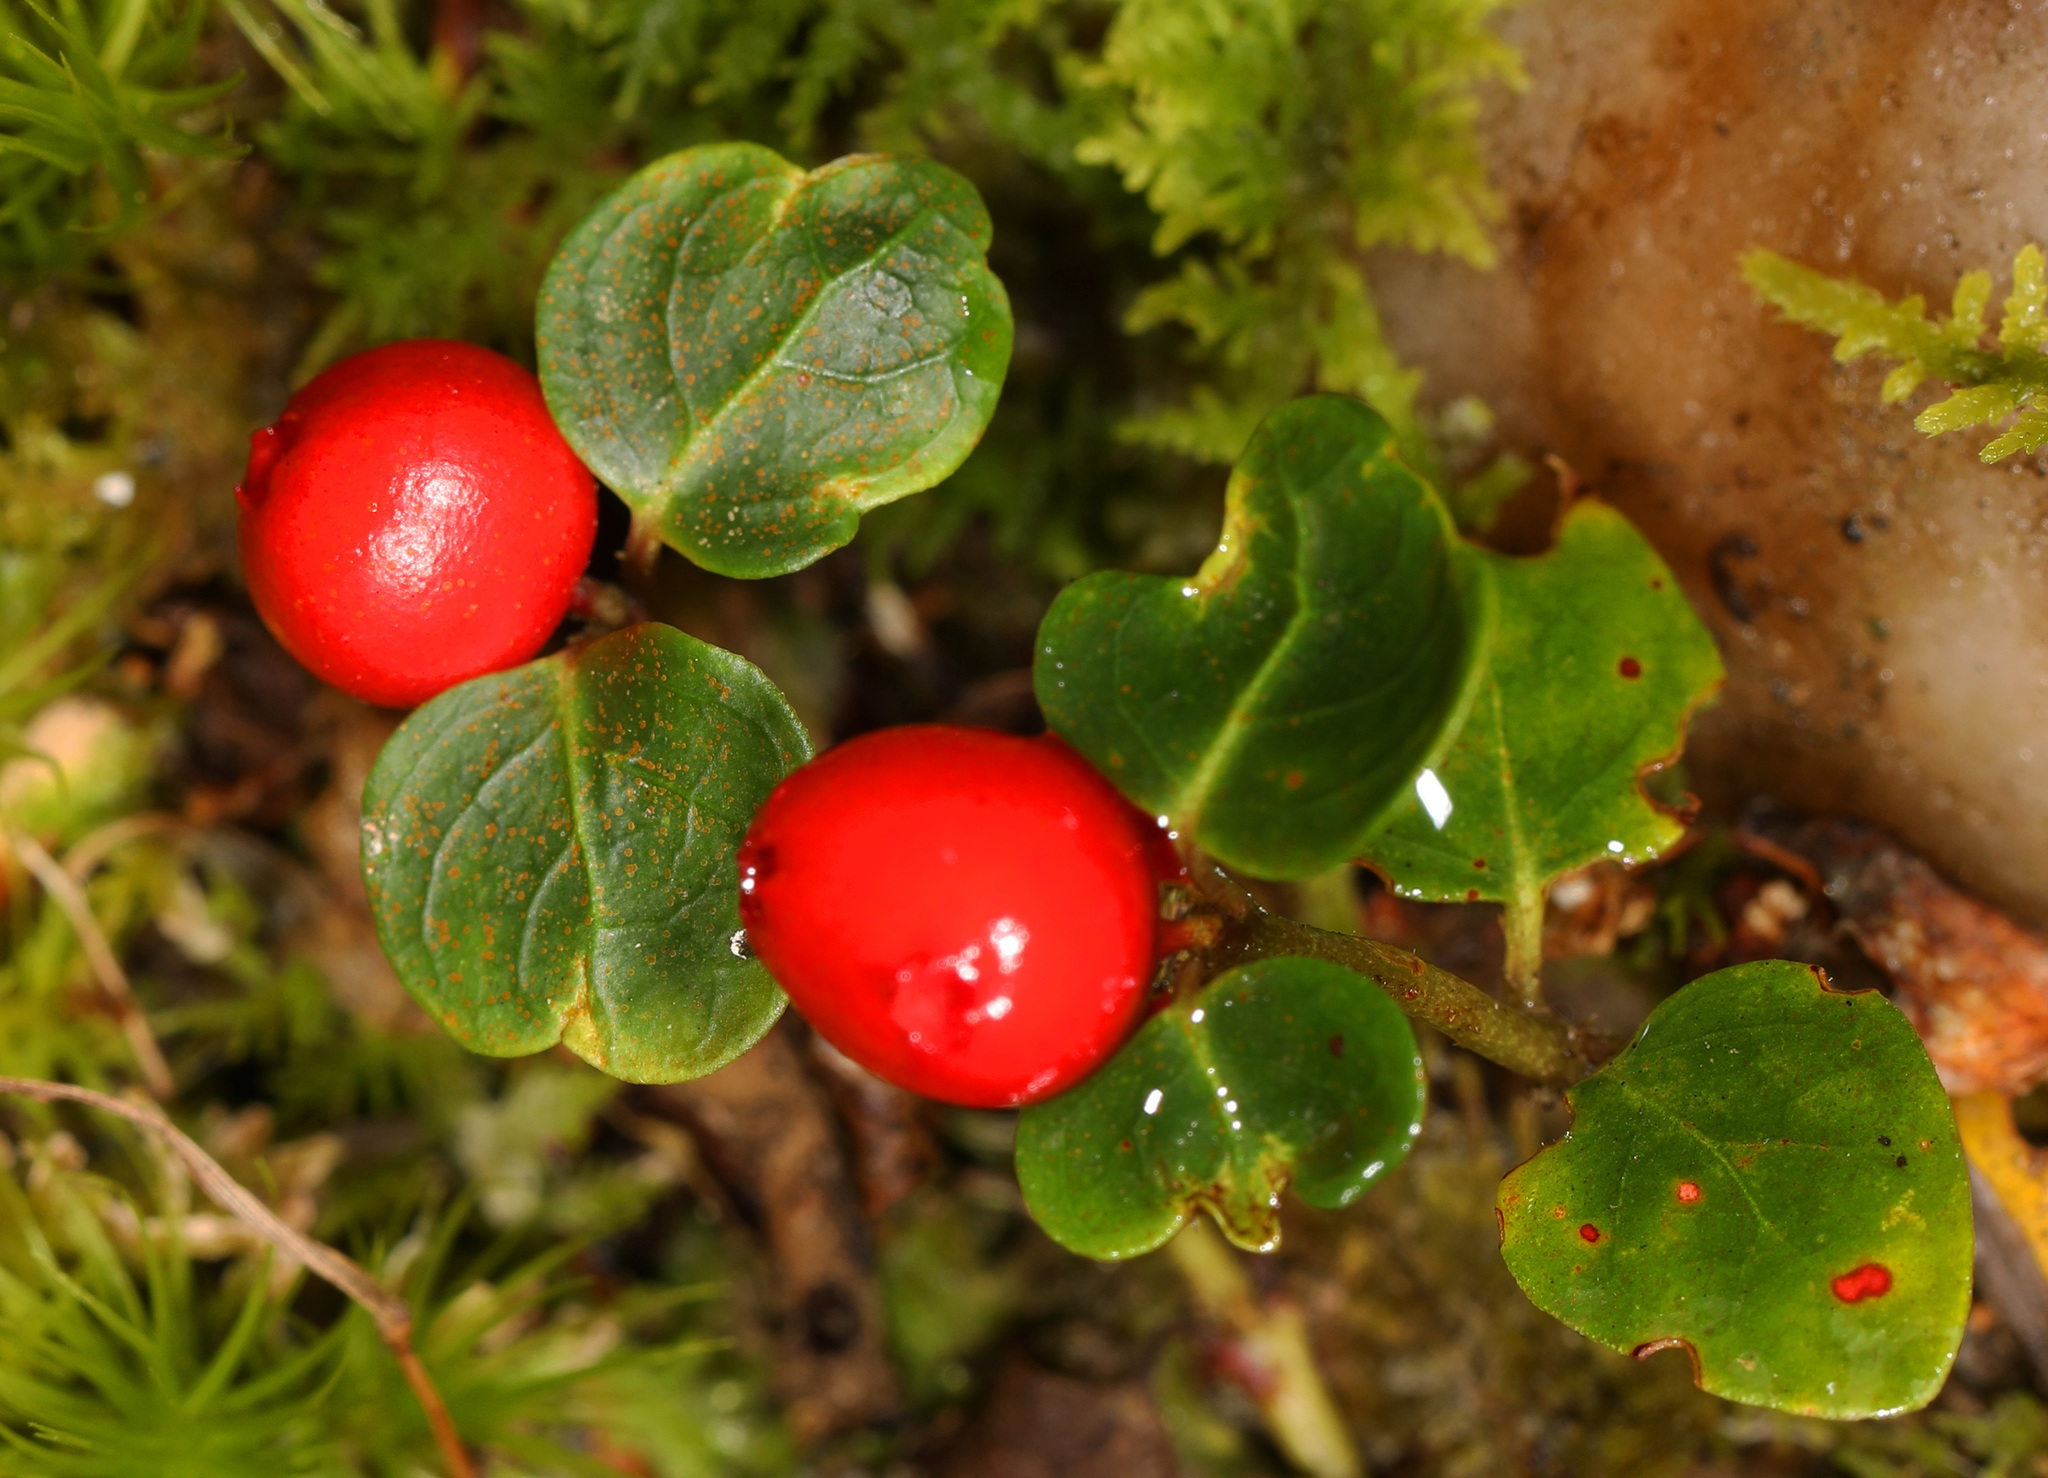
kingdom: Plantae
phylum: Tracheophyta
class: Magnoliopsida
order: Gentianales
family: Rubiaceae
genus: Mitchella
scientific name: Mitchella repens
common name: Partridge-berry
